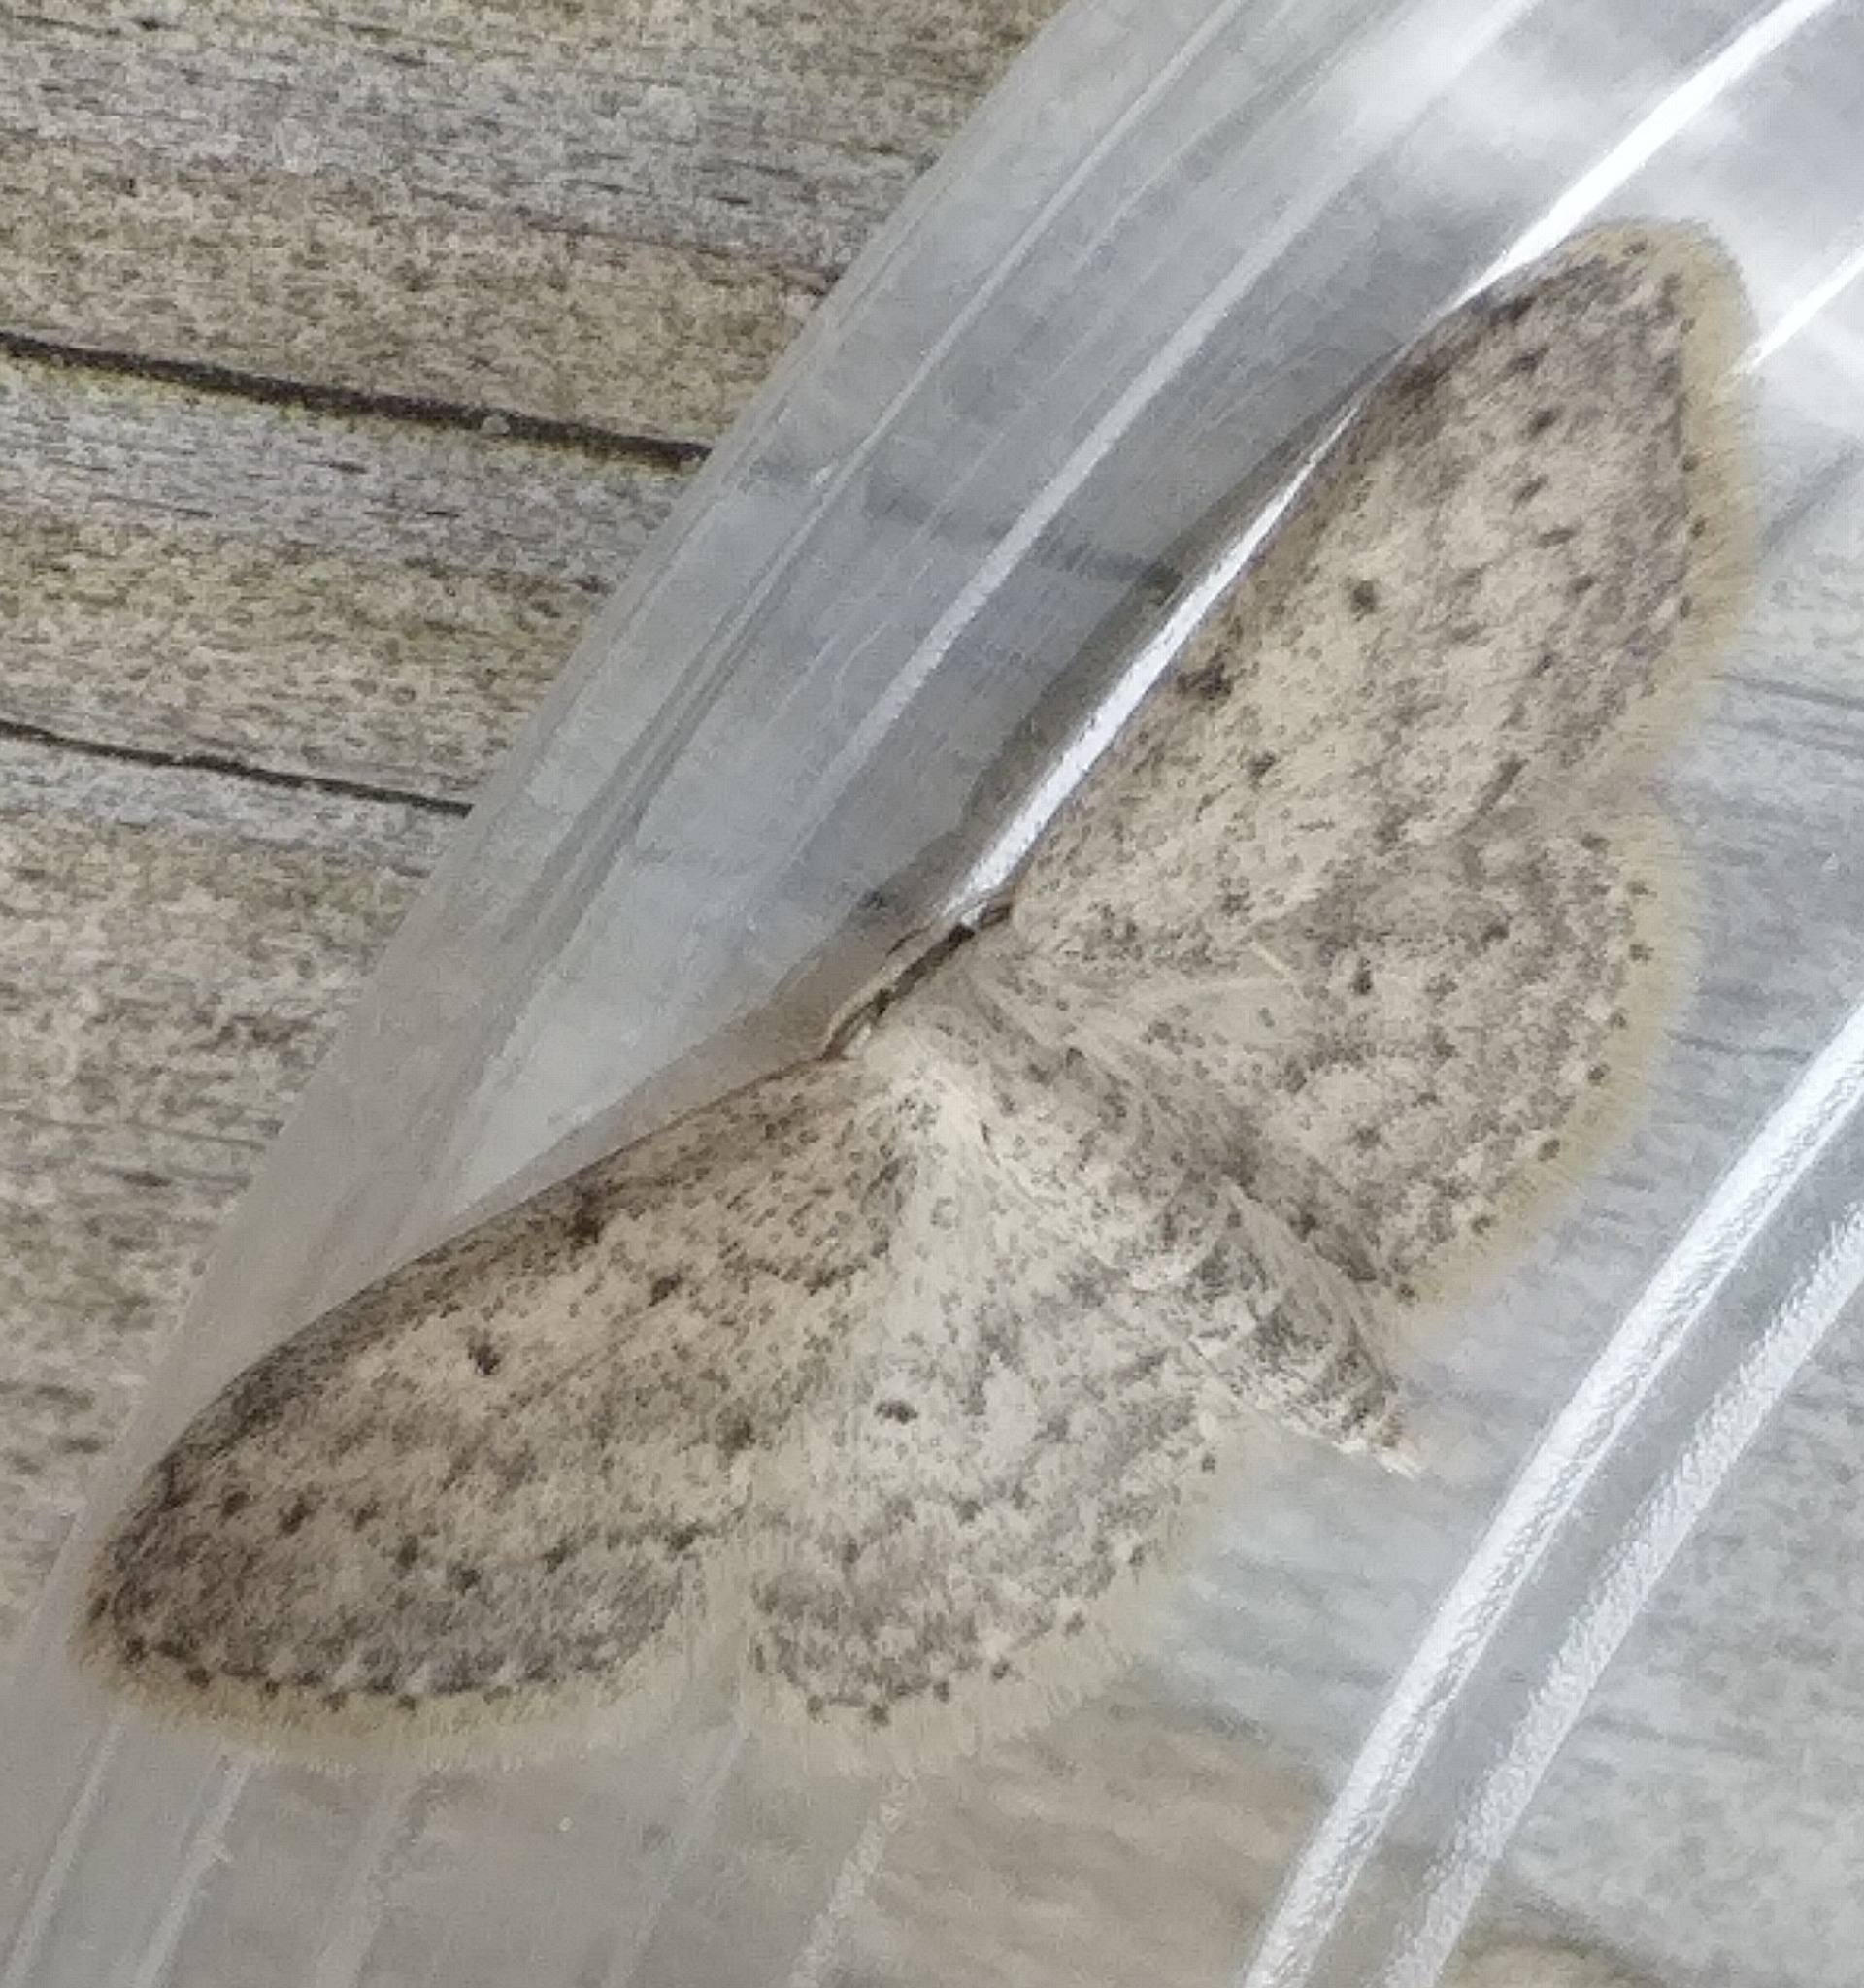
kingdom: Animalia
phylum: Arthropoda
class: Insecta
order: Lepidoptera
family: Geometridae
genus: Idaea
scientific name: Idaea seriata
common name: Small dusty wave
